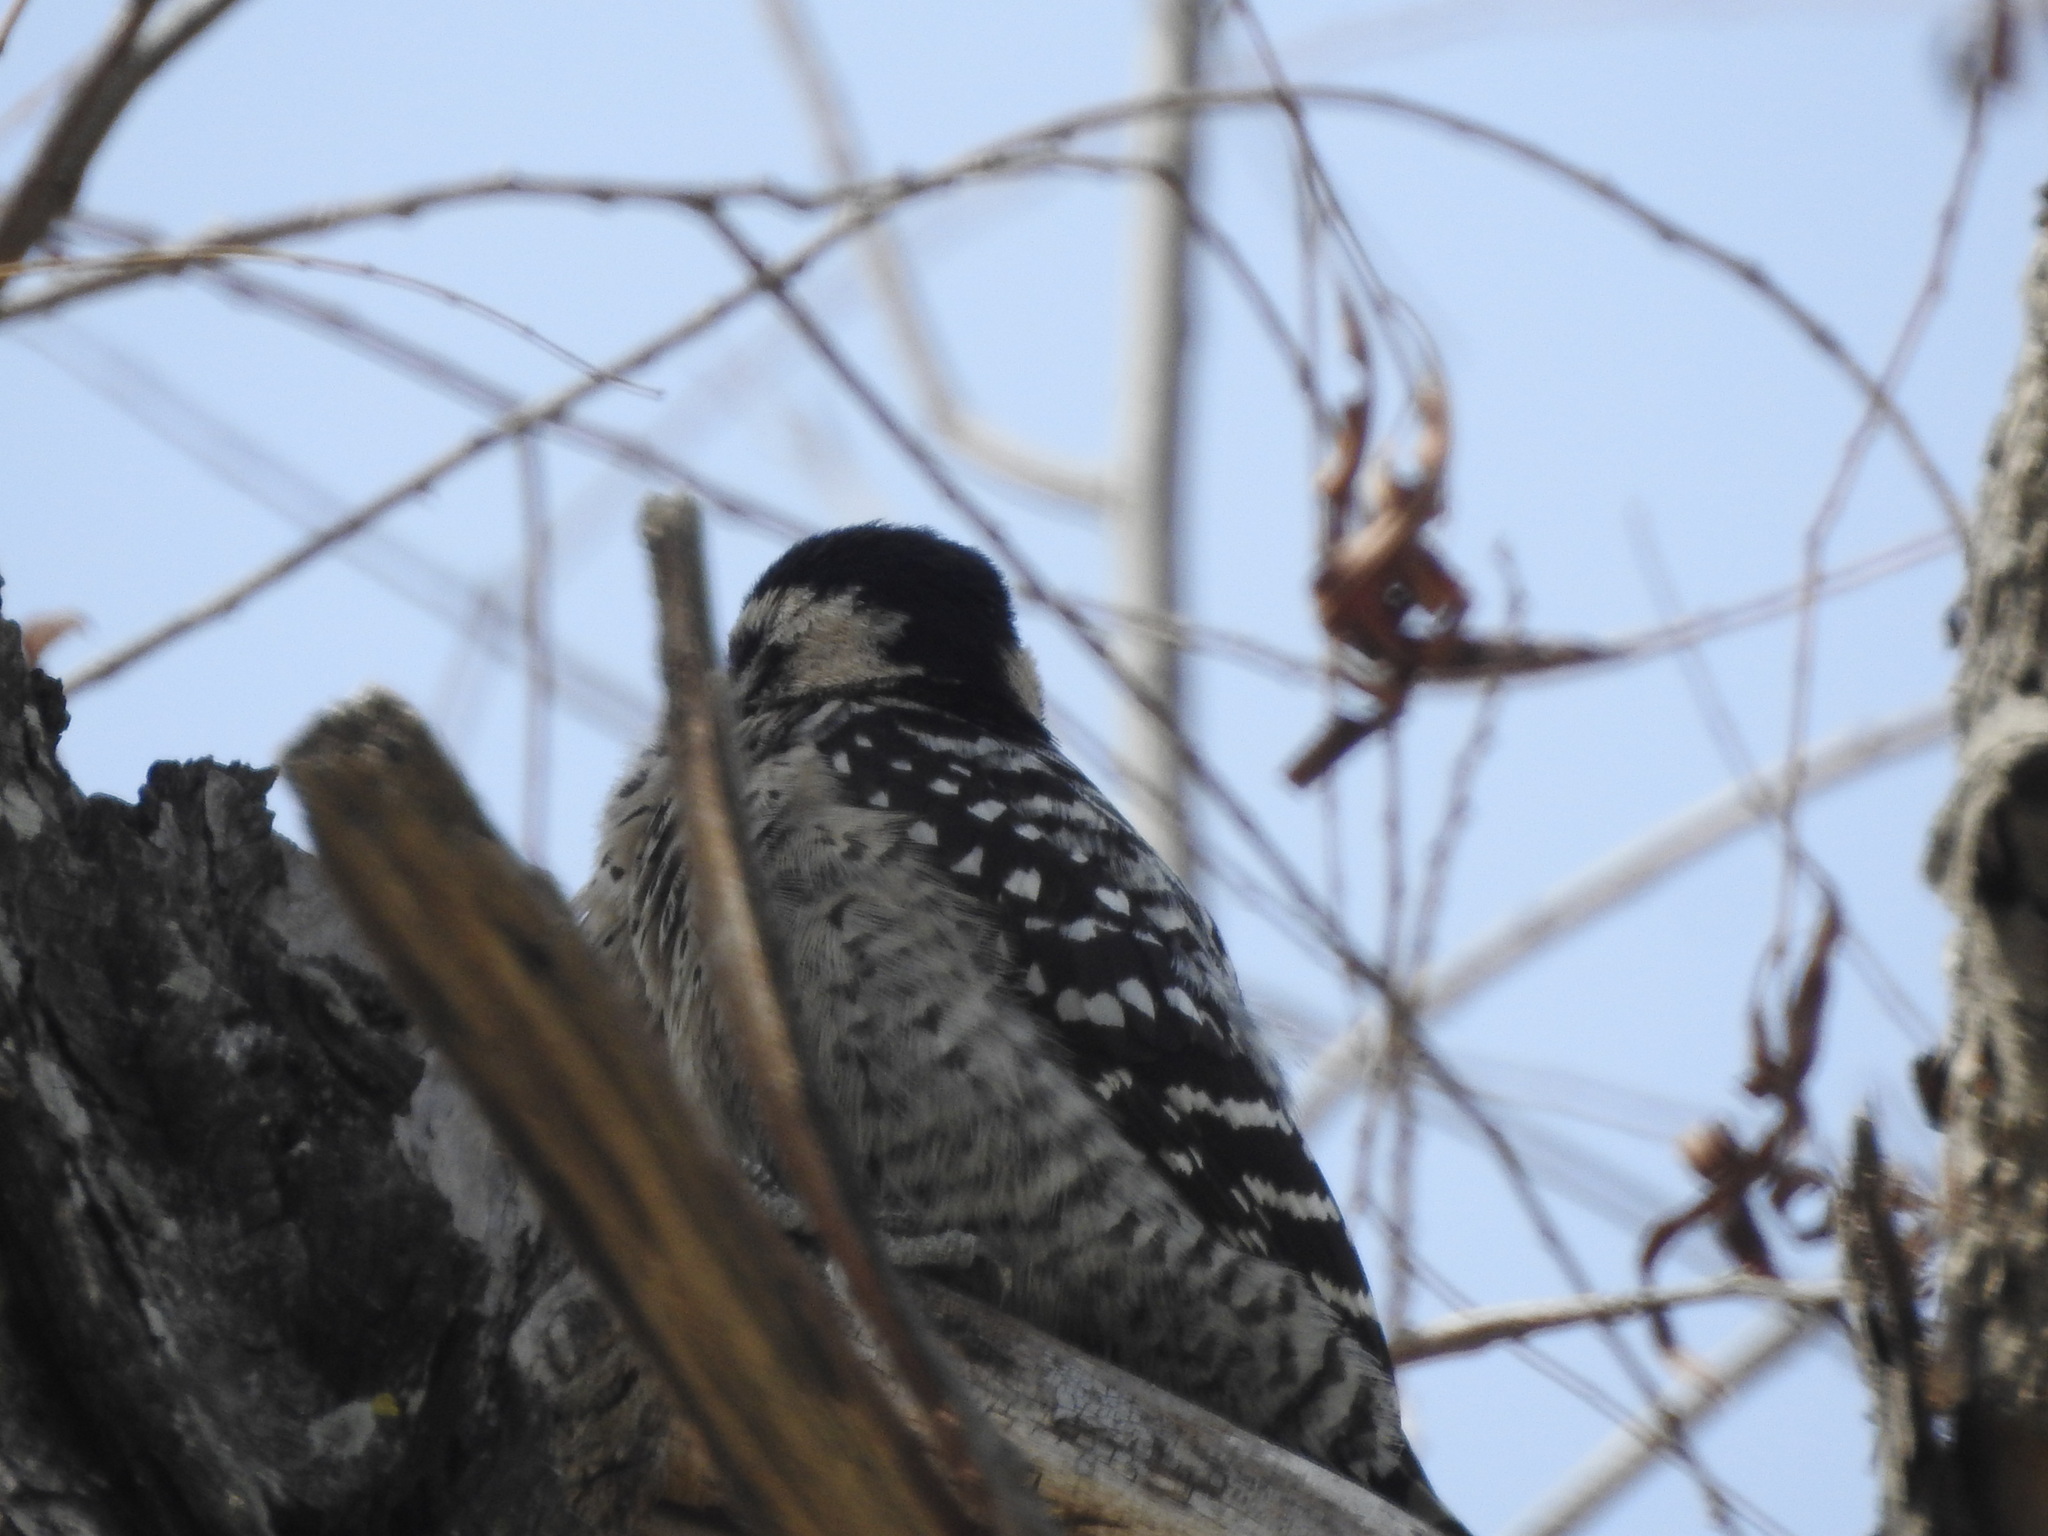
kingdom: Animalia
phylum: Chordata
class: Aves
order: Piciformes
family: Picidae
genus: Dryobates
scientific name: Dryobates scalaris
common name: Ladder-backed woodpecker
